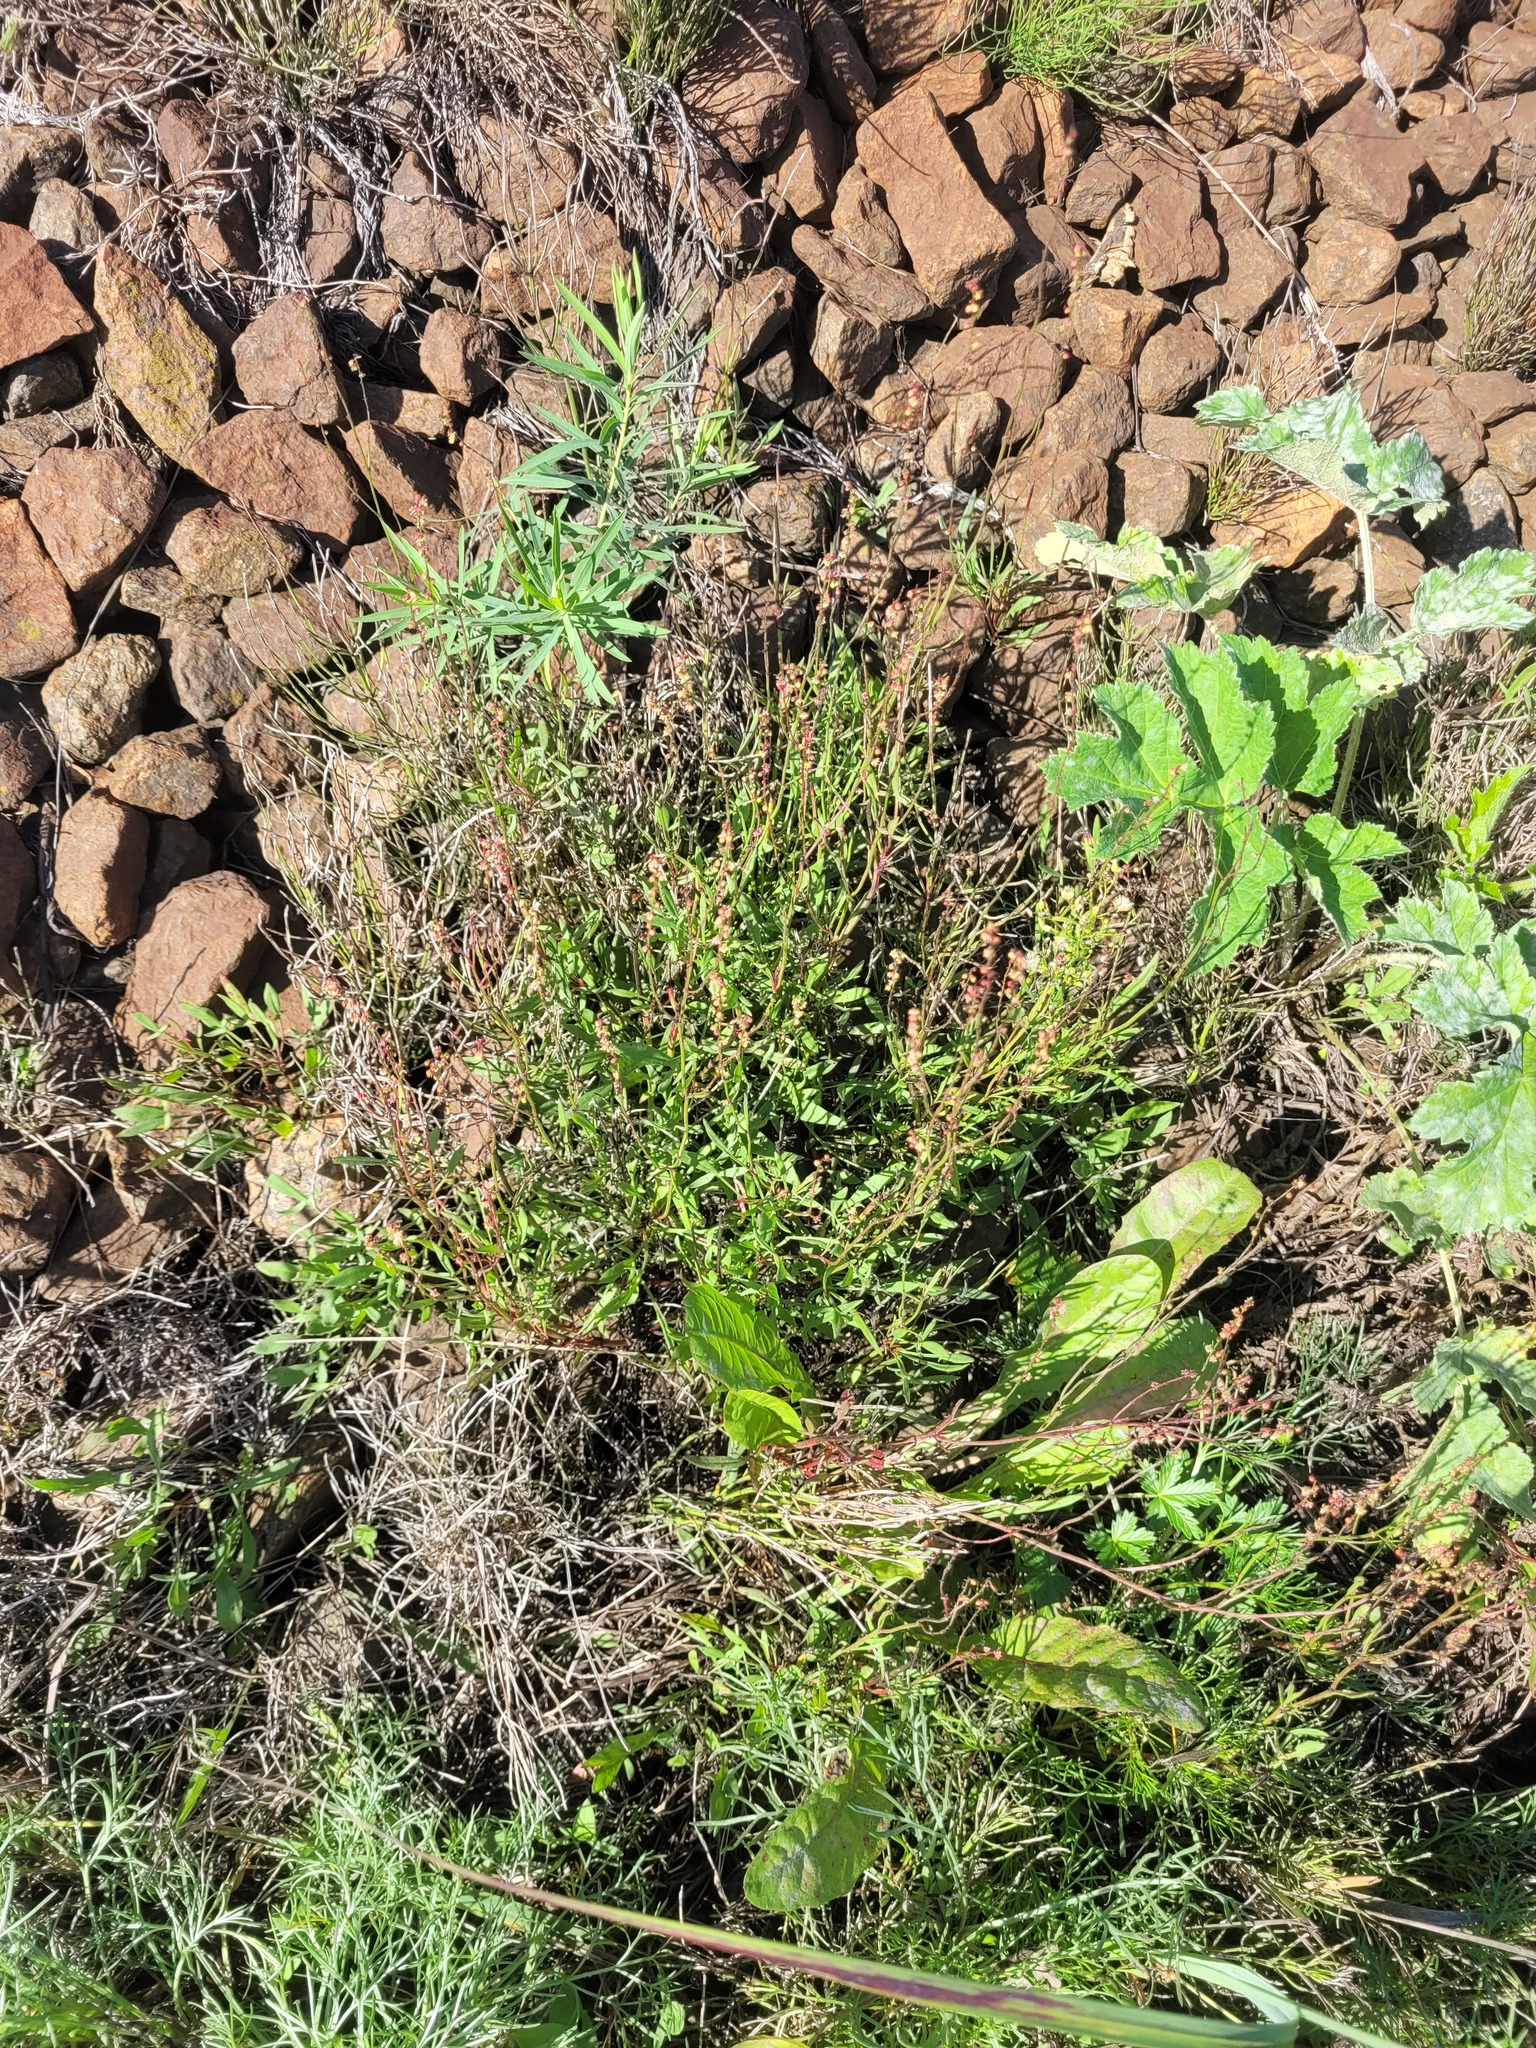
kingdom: Plantae
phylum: Tracheophyta
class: Magnoliopsida
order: Caryophyllales
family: Polygonaceae
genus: Rumex
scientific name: Rumex acetosella
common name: Common sheep sorrel
